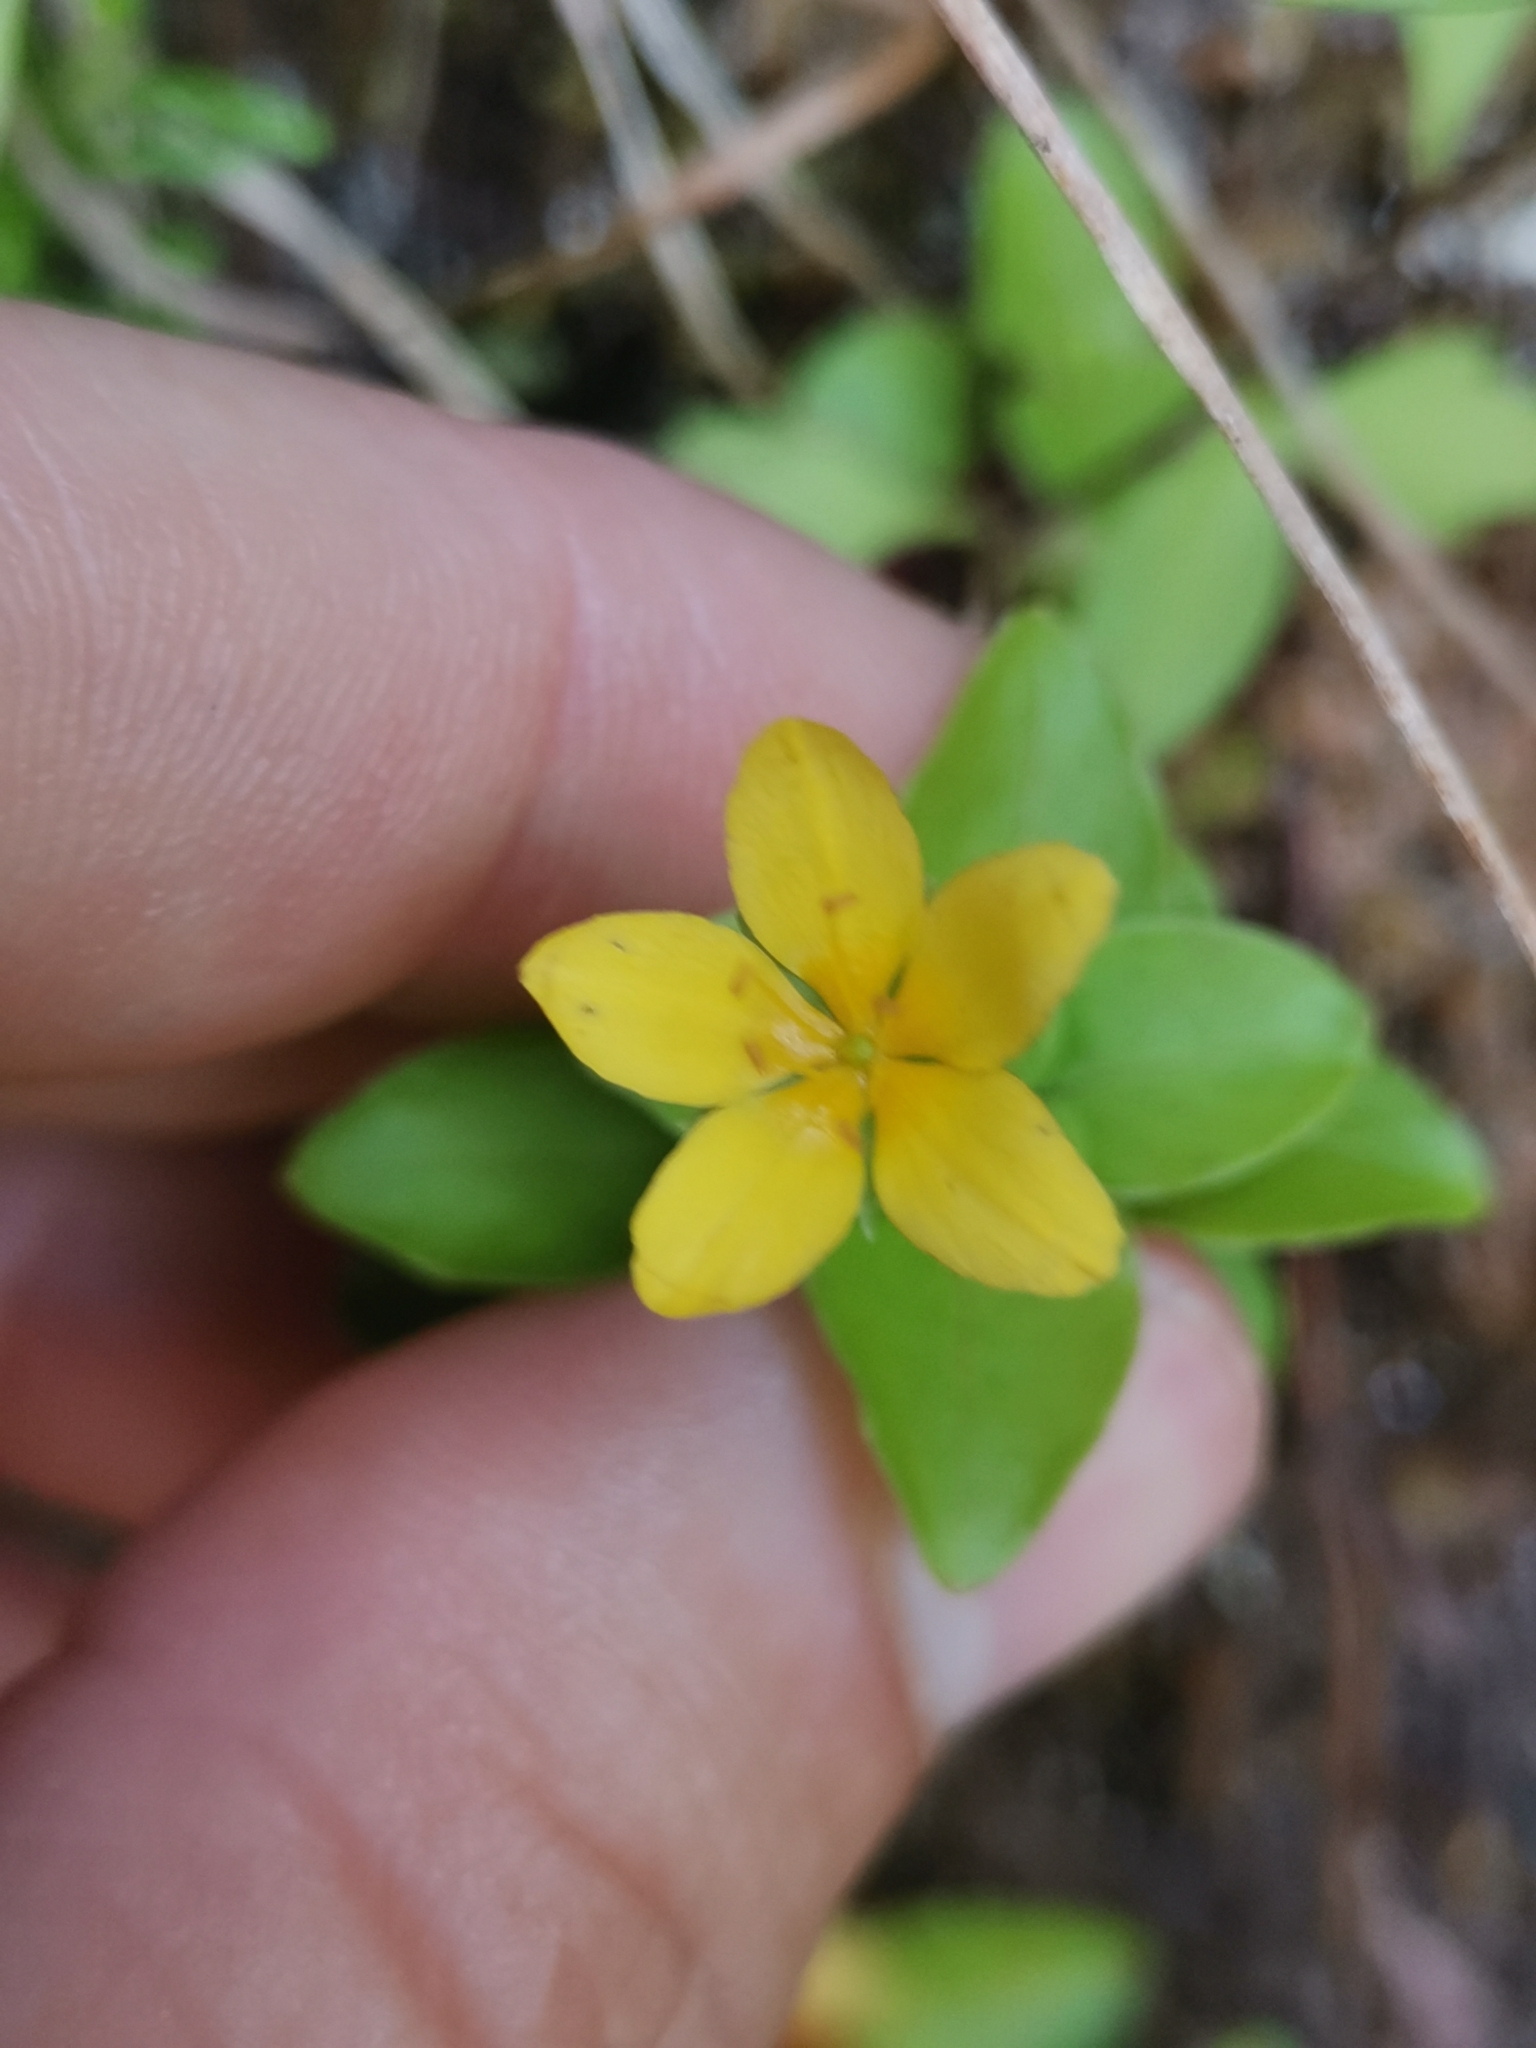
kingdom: Plantae
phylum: Tracheophyta
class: Magnoliopsida
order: Ericales
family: Primulaceae
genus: Lysimachia
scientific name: Lysimachia azorica
